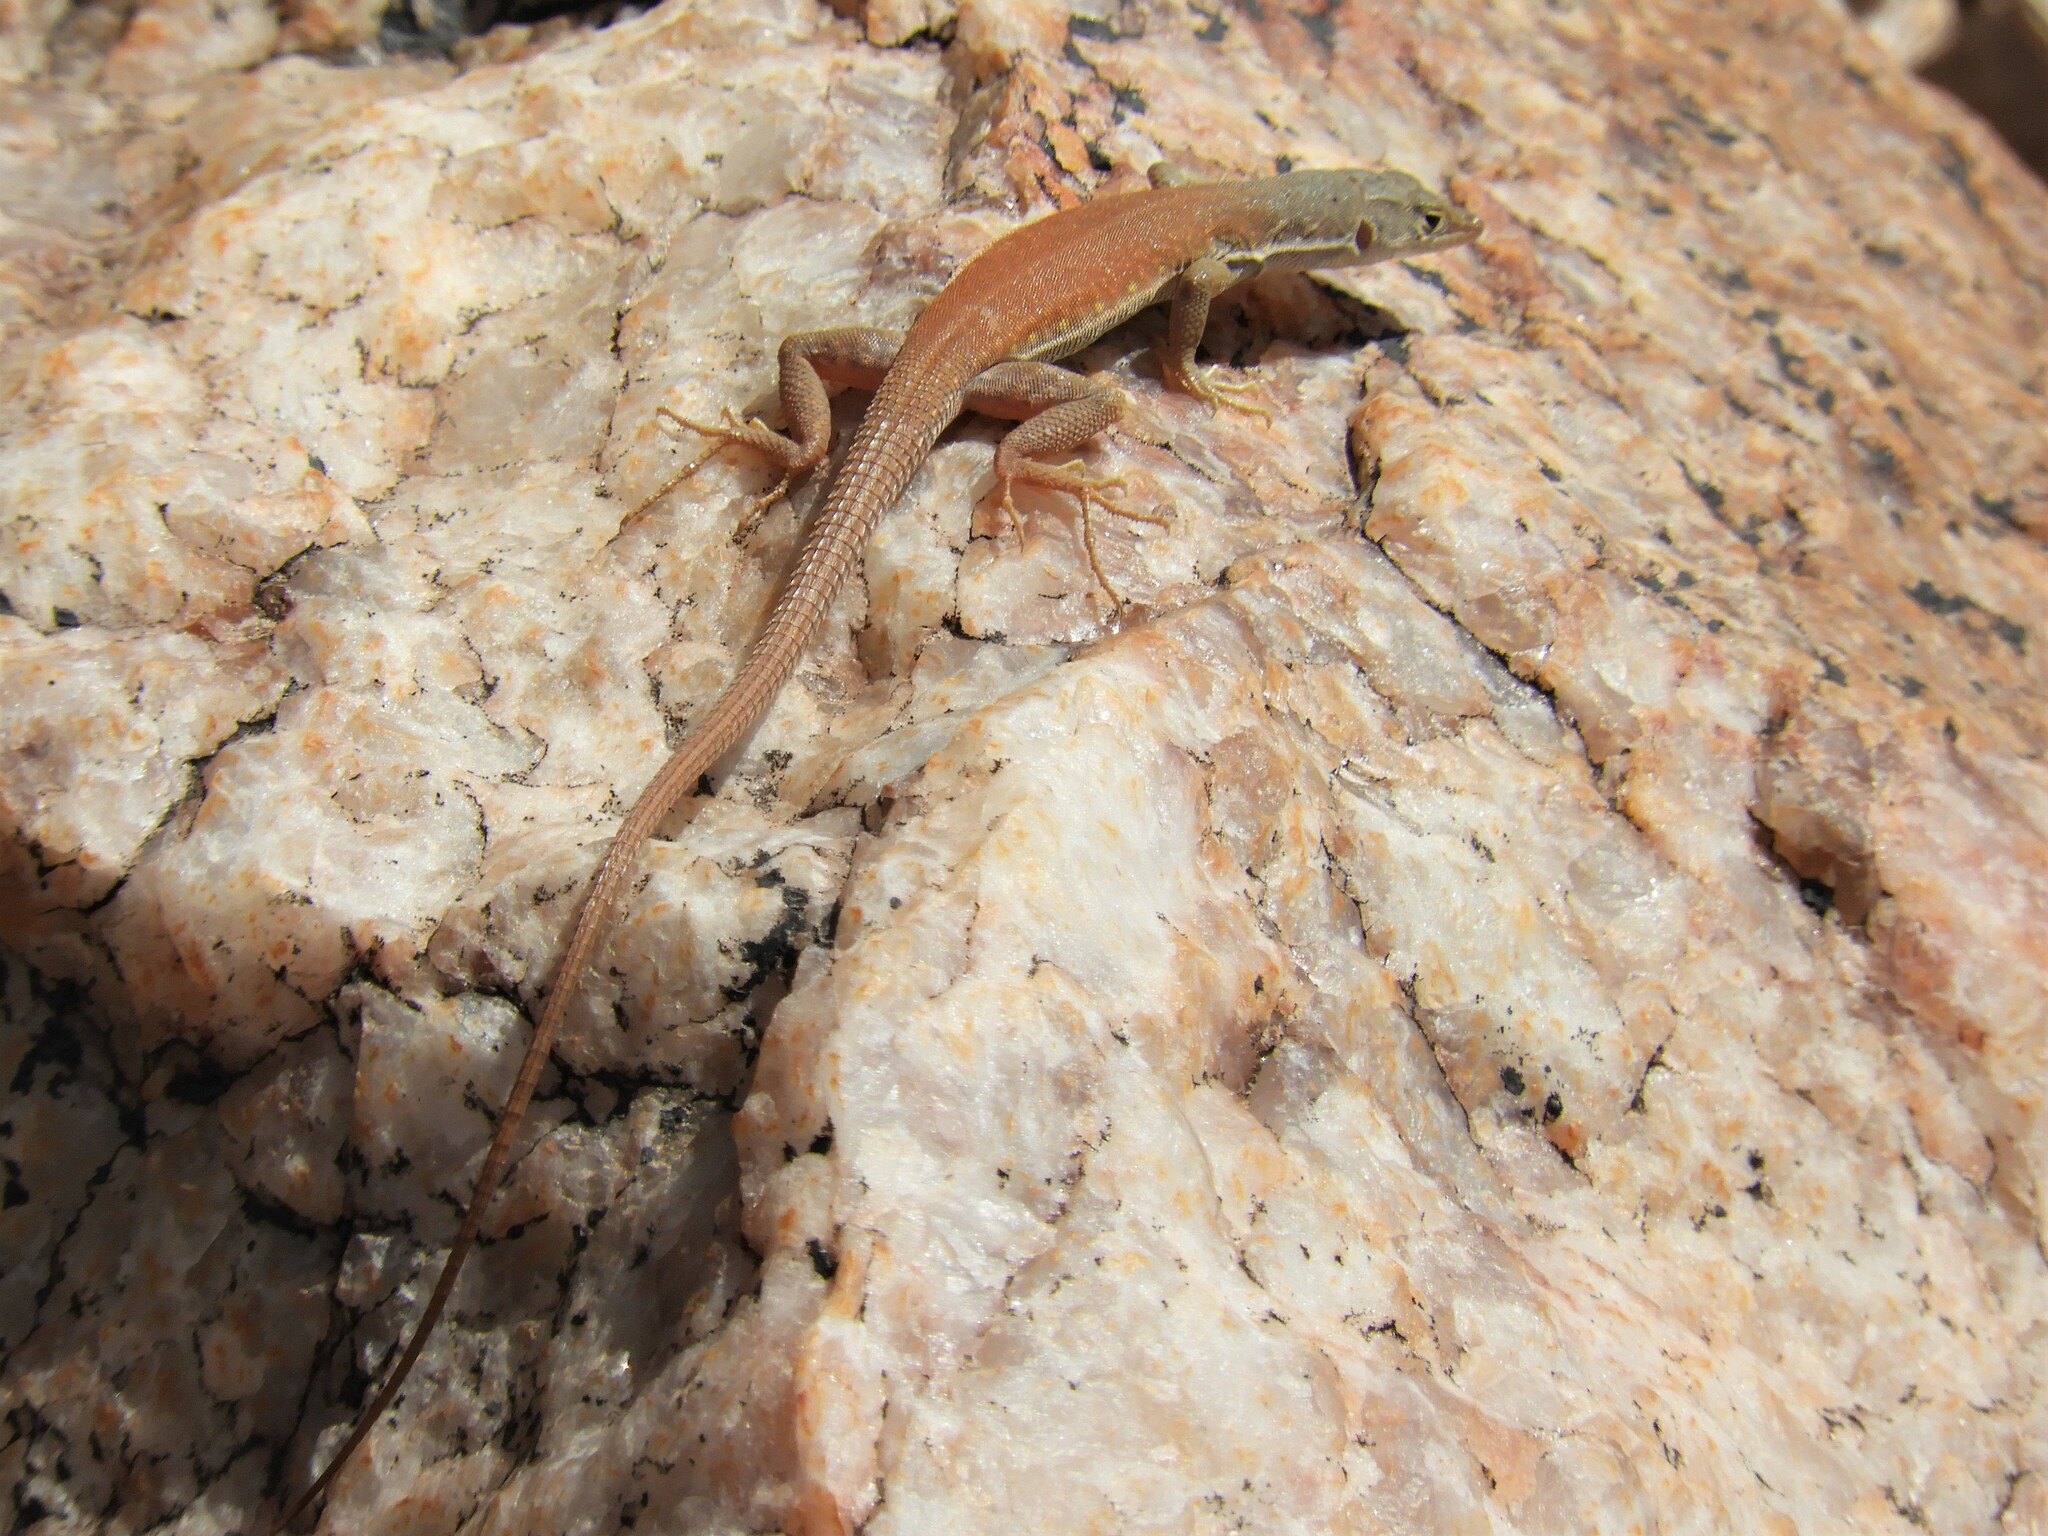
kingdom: Animalia
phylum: Chordata
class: Squamata
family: Lacertidae
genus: Pedioplanis
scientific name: Pedioplanis inornata
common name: Plain sand lizard
